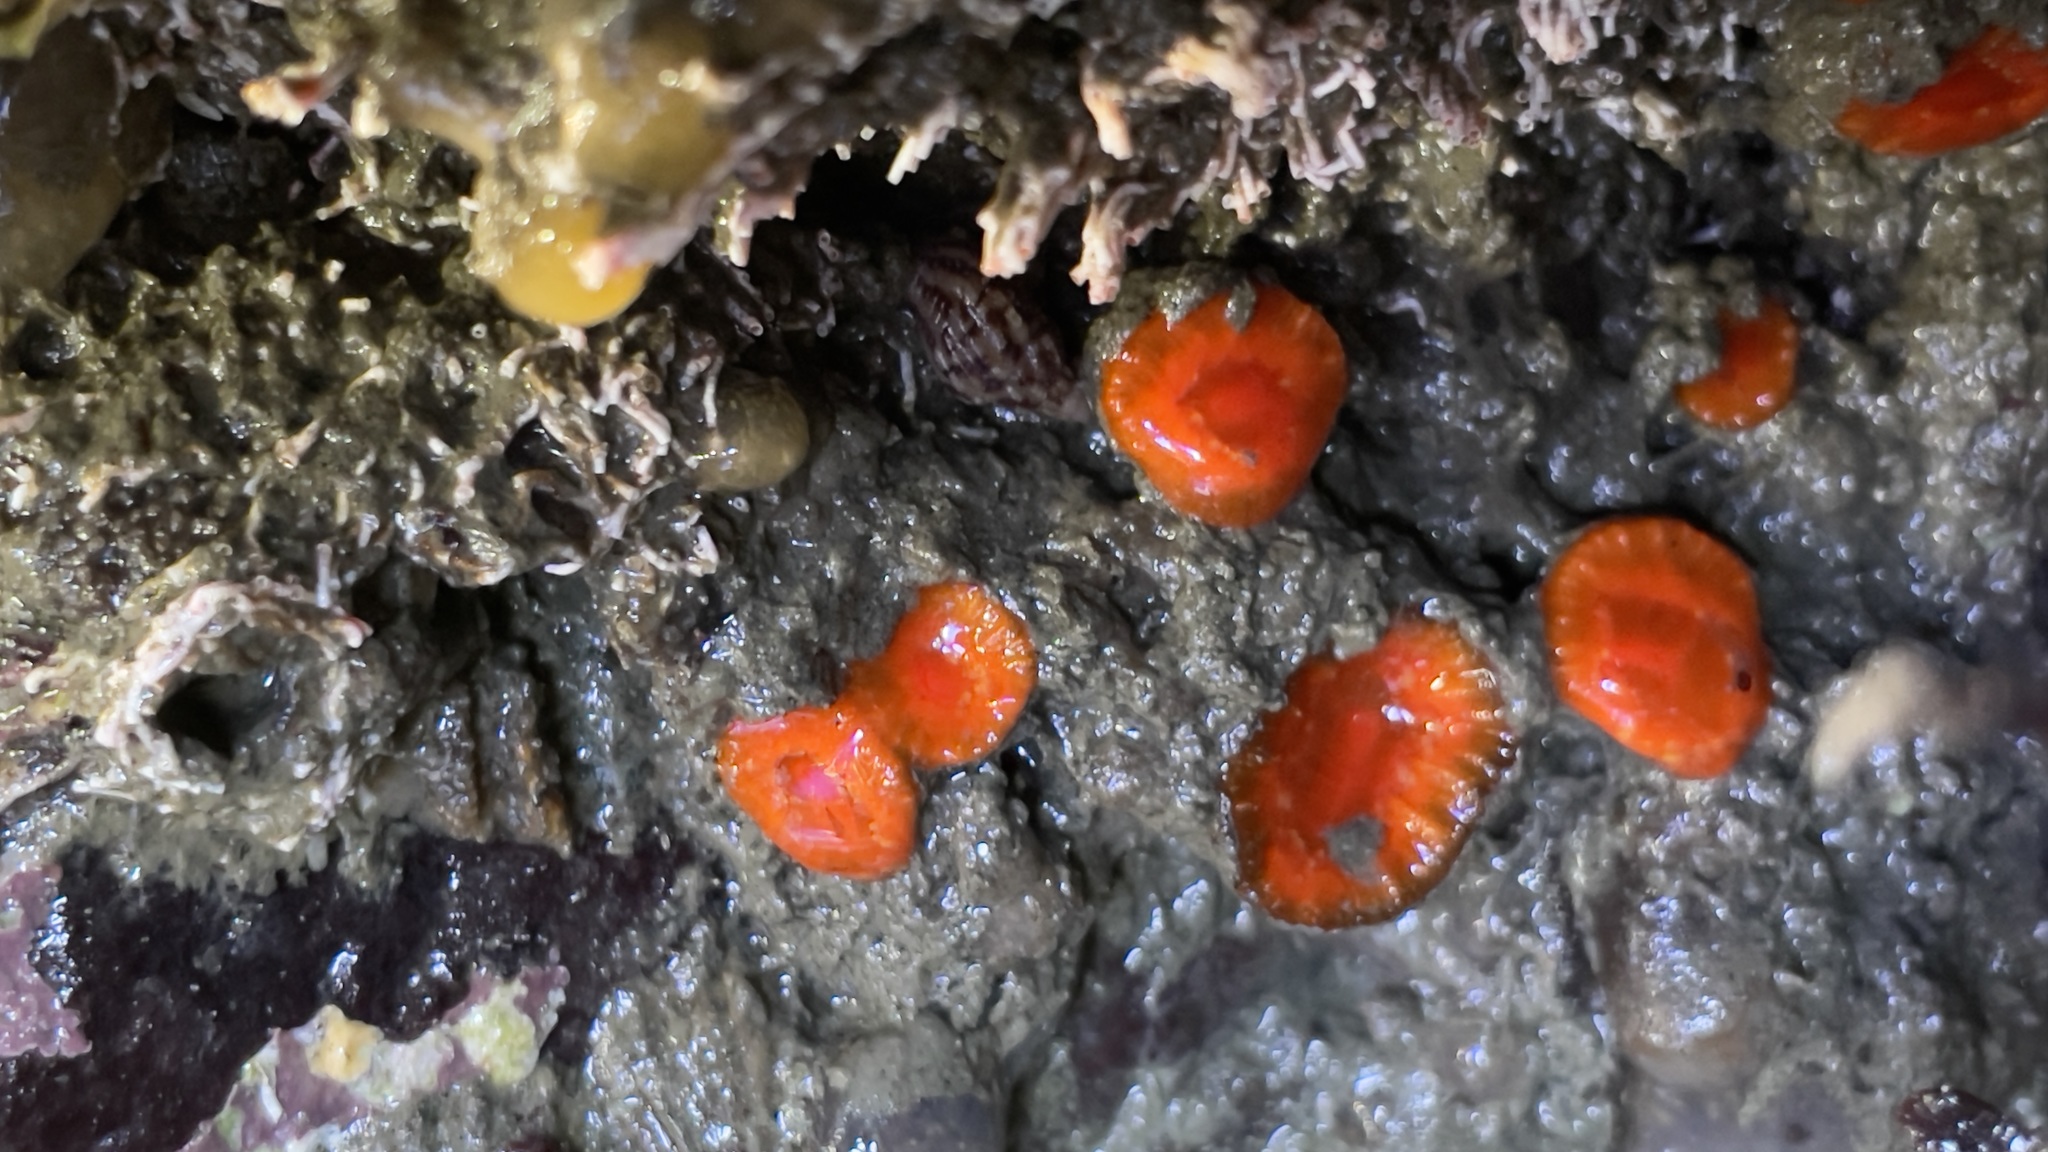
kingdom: Animalia
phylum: Cnidaria
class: Anthozoa
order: Scleractinia
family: Dendrophylliidae
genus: Balanophyllia
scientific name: Balanophyllia elegans
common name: Orange stony coral
